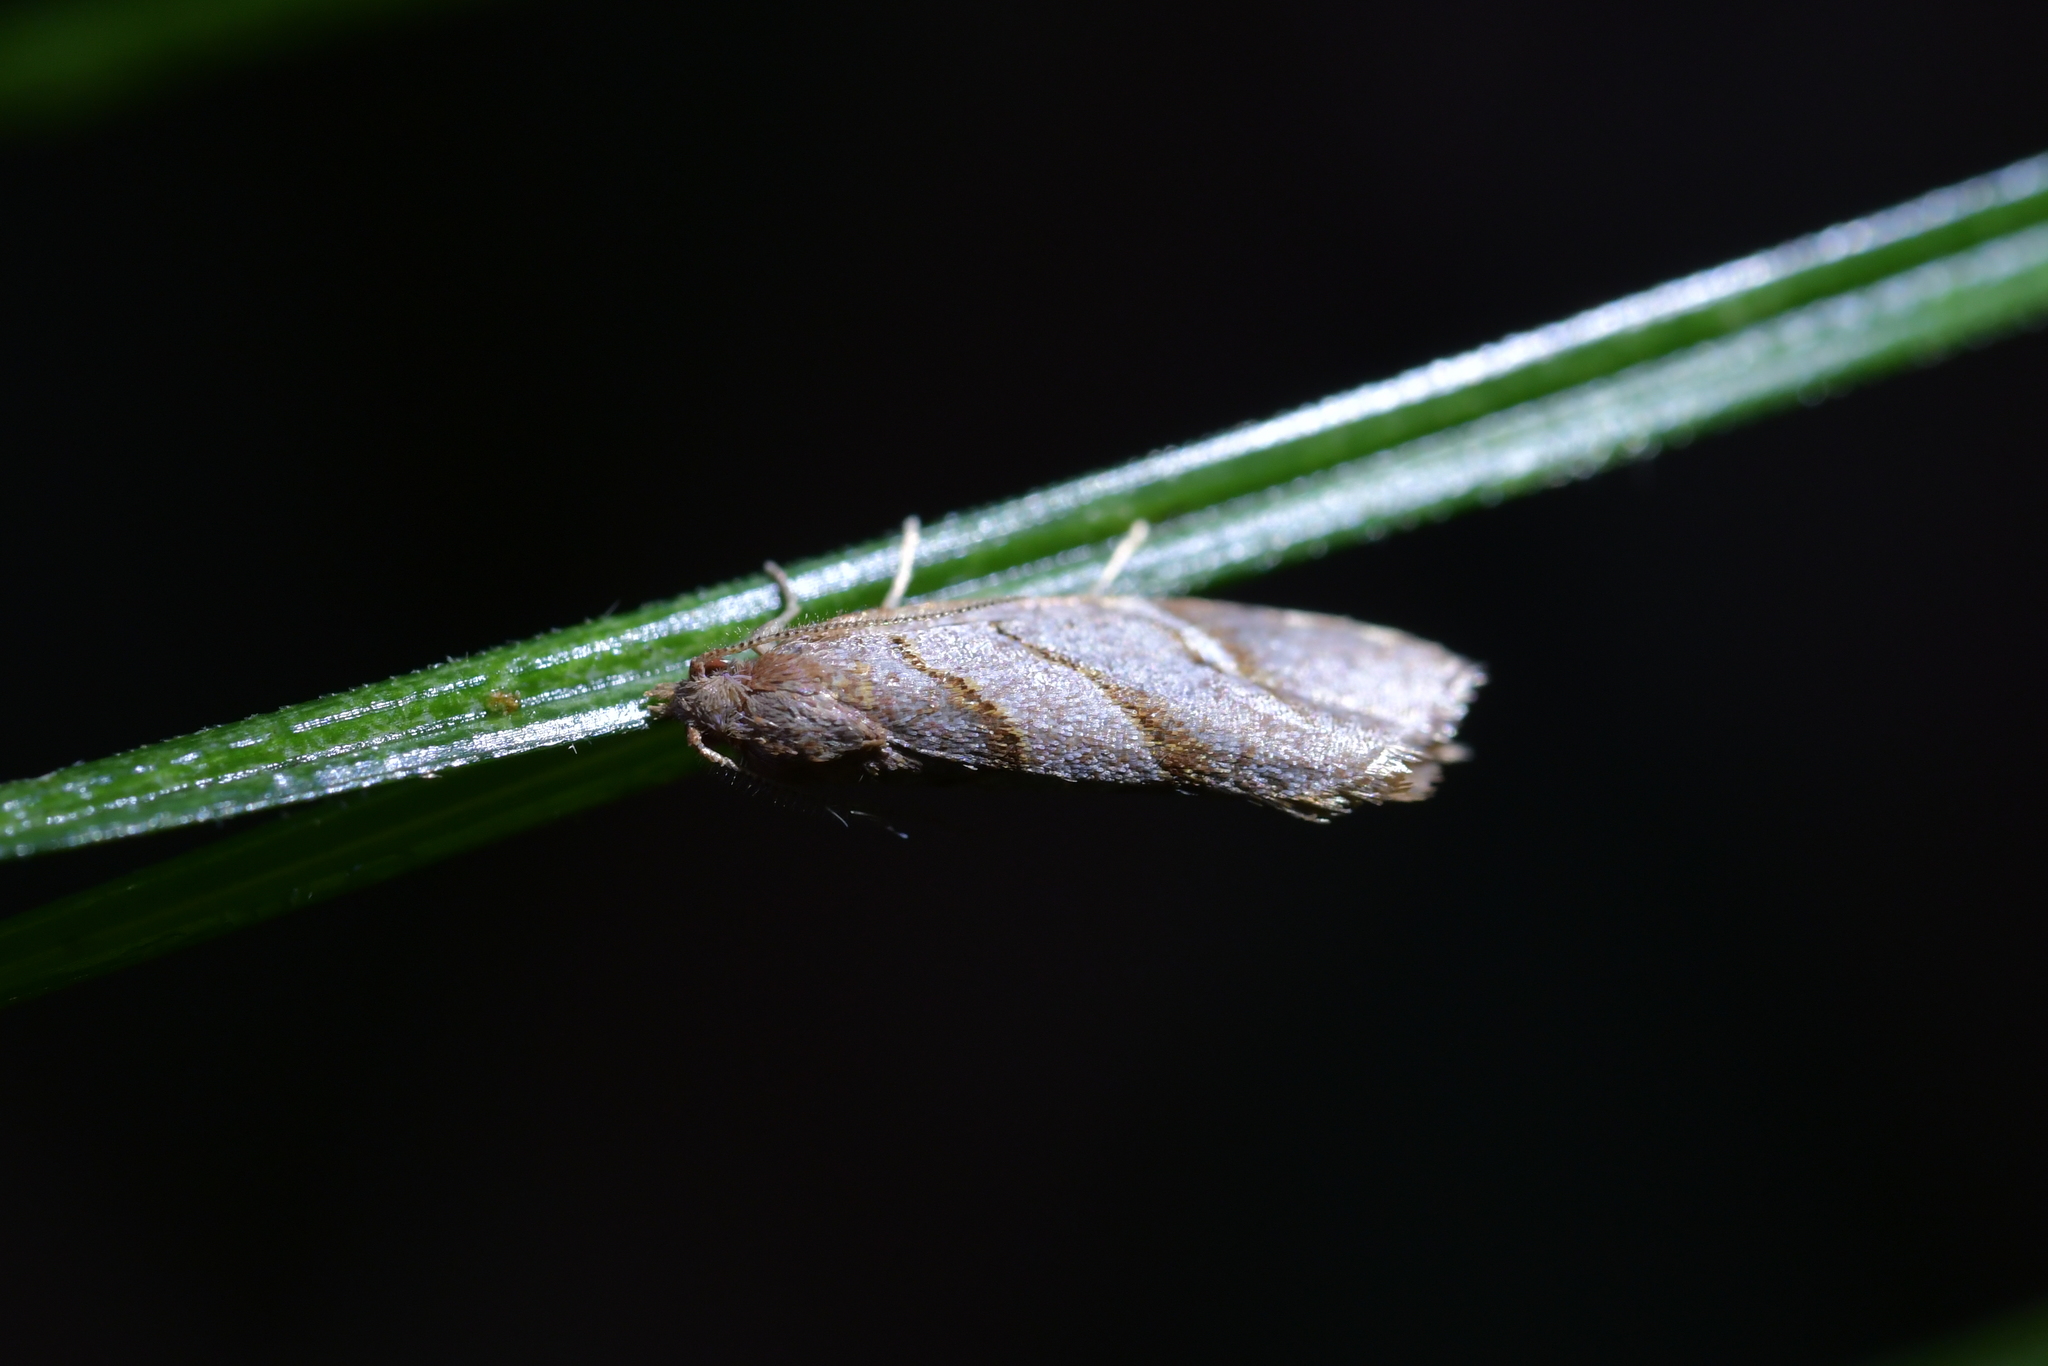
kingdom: Animalia
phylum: Arthropoda
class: Insecta
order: Lepidoptera
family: Tortricidae
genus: Ecclitica
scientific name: Ecclitica torogramma
